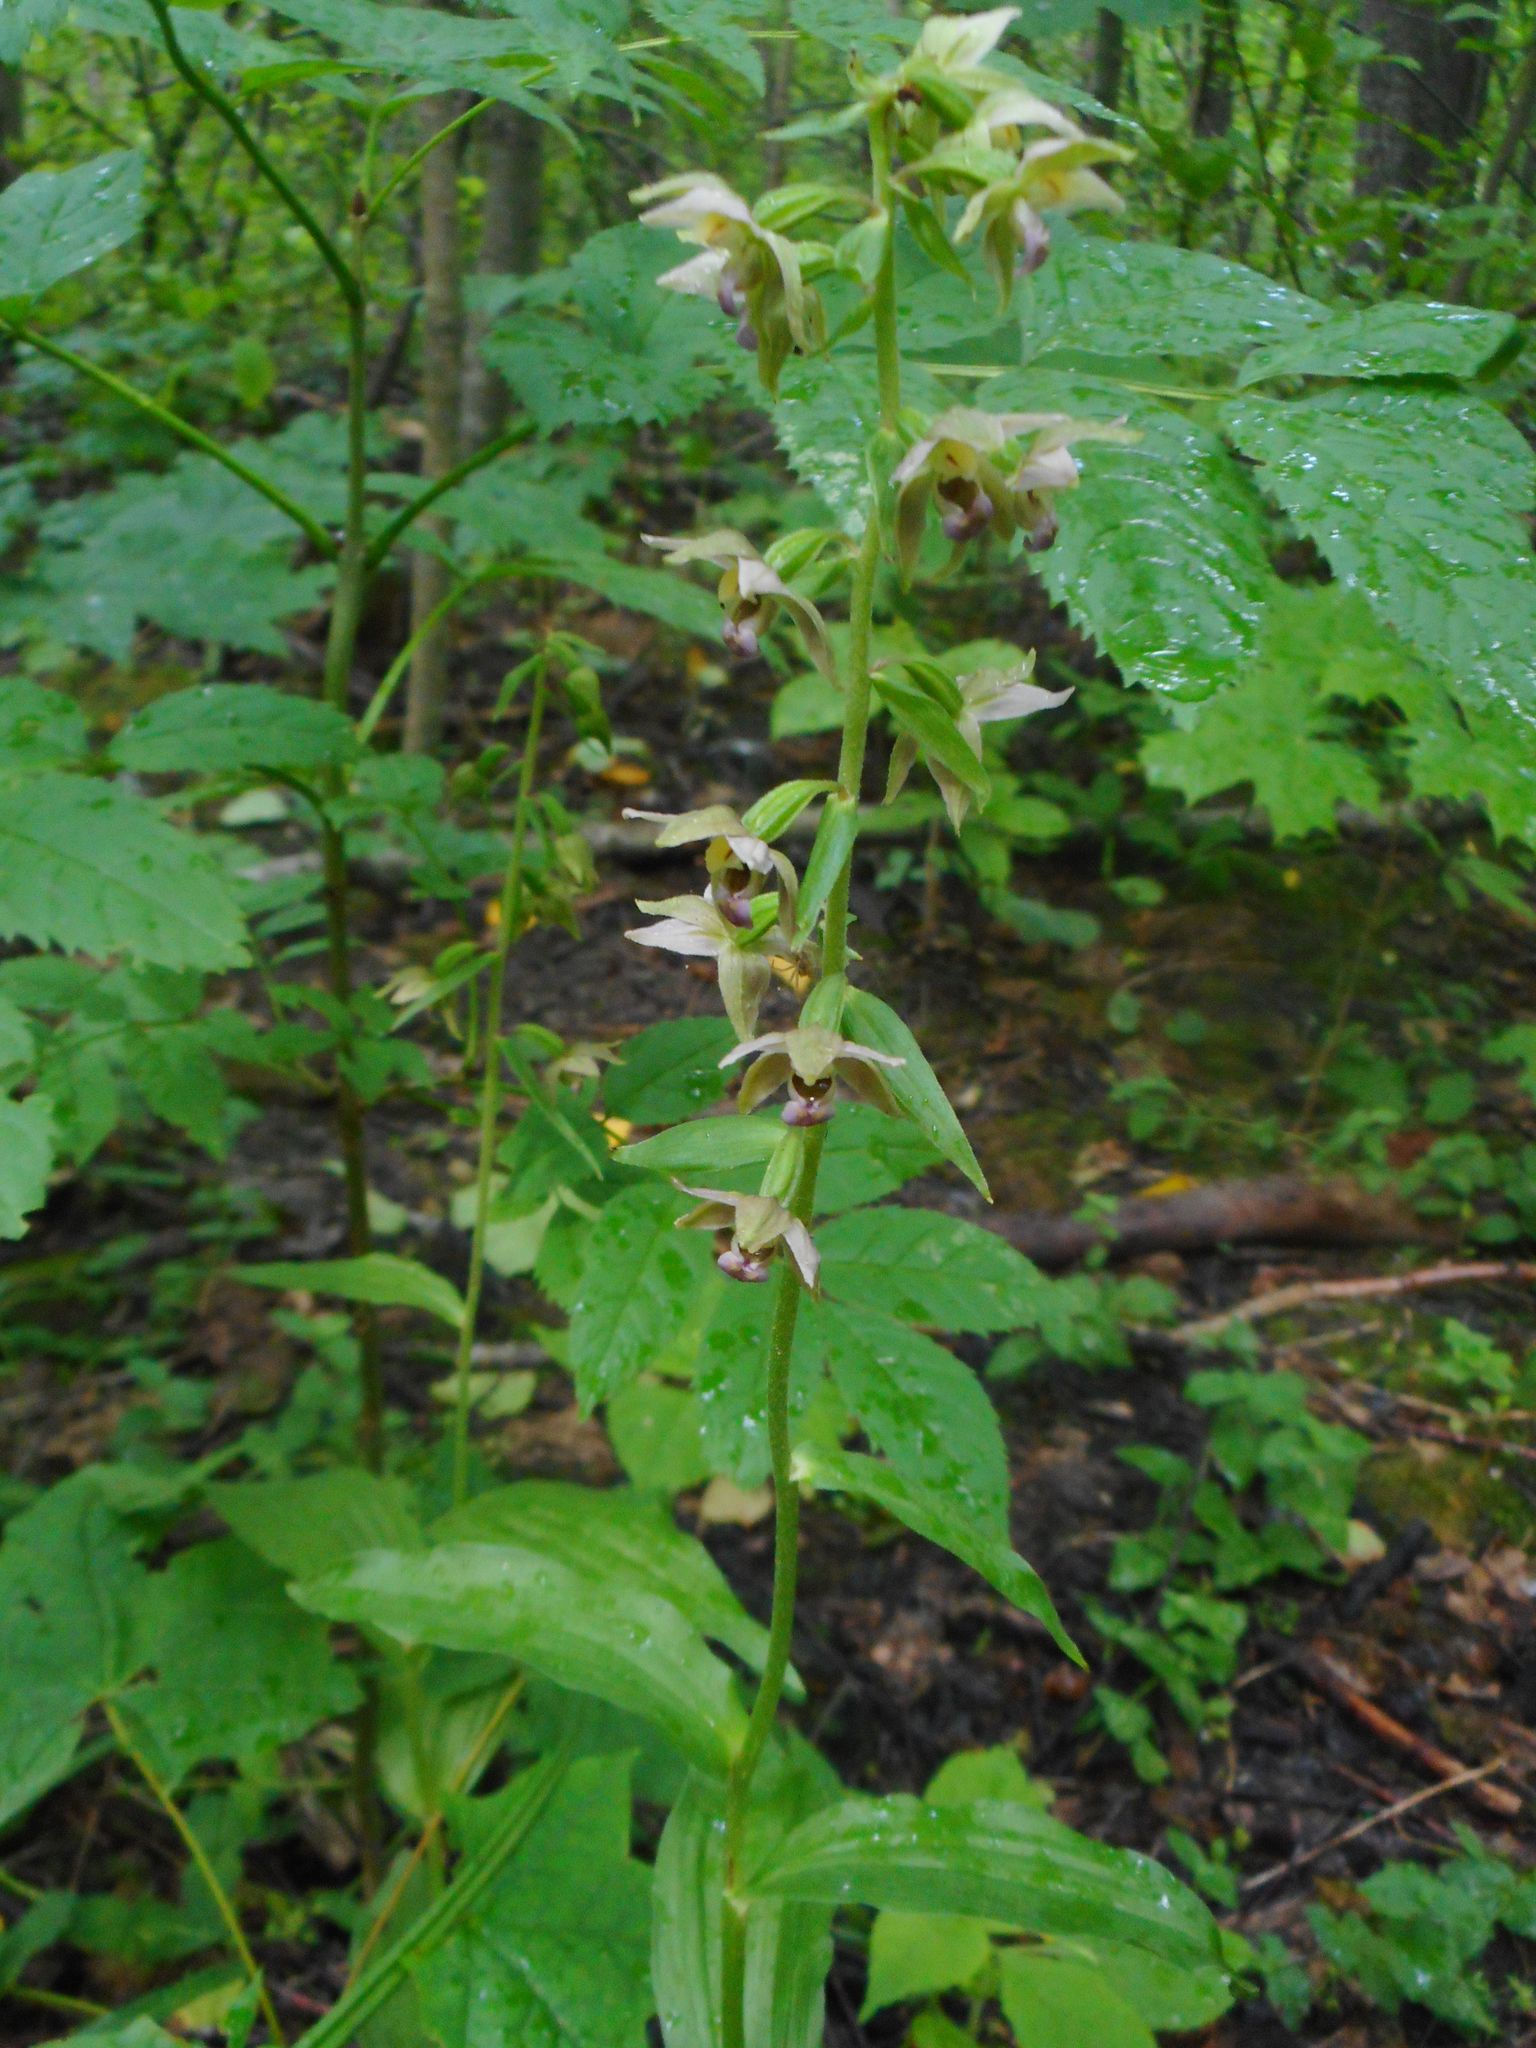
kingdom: Plantae
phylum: Tracheophyta
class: Liliopsida
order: Asparagales
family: Orchidaceae
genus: Epipactis
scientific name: Epipactis helleborine
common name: Broad-leaved helleborine
